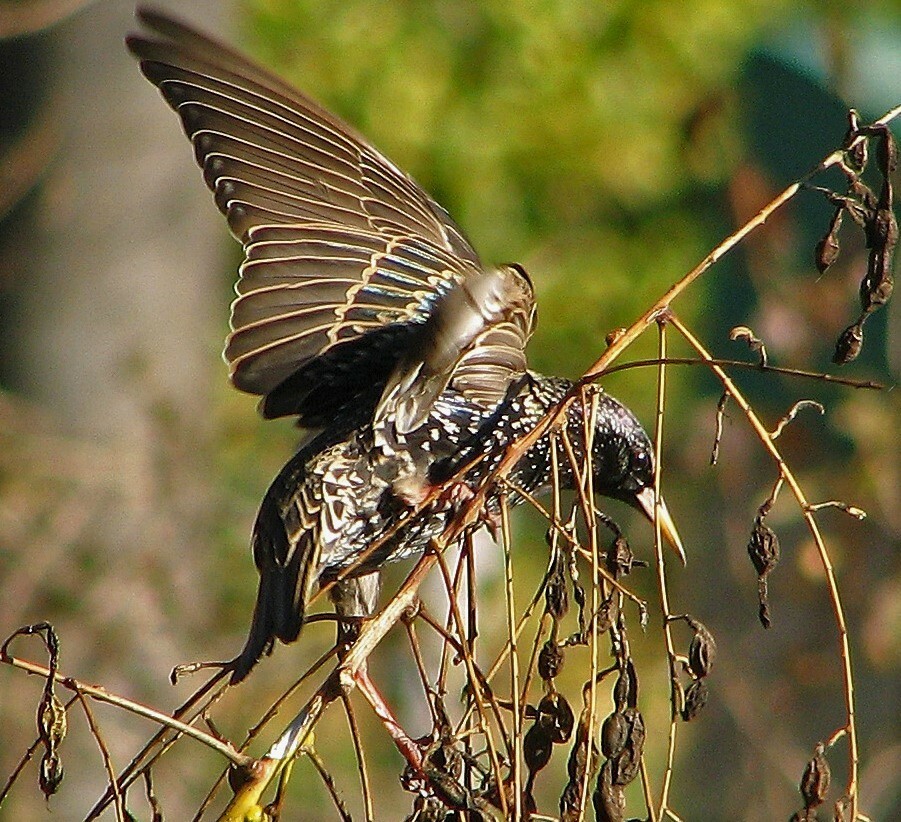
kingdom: Animalia
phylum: Chordata
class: Aves
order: Passeriformes
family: Sturnidae
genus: Sturnus
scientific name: Sturnus vulgaris
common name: Common starling
